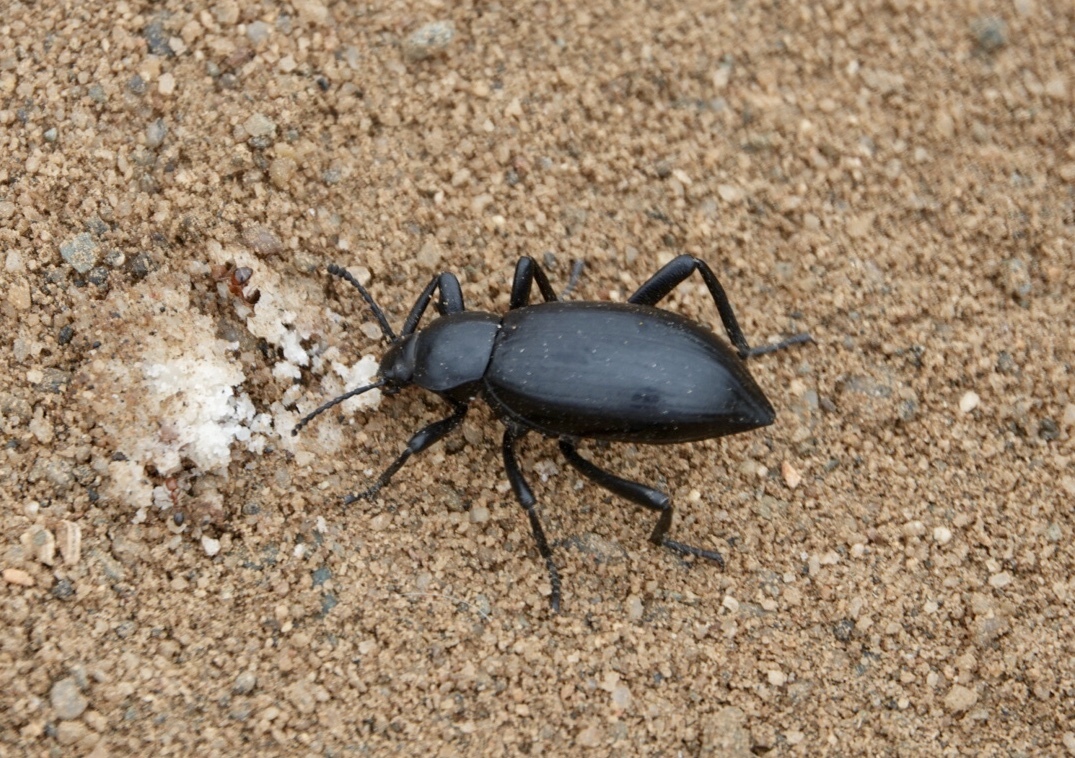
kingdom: Animalia
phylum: Arthropoda
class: Insecta
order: Coleoptera
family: Tenebrionidae
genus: Eleodes
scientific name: Eleodes gracilis
